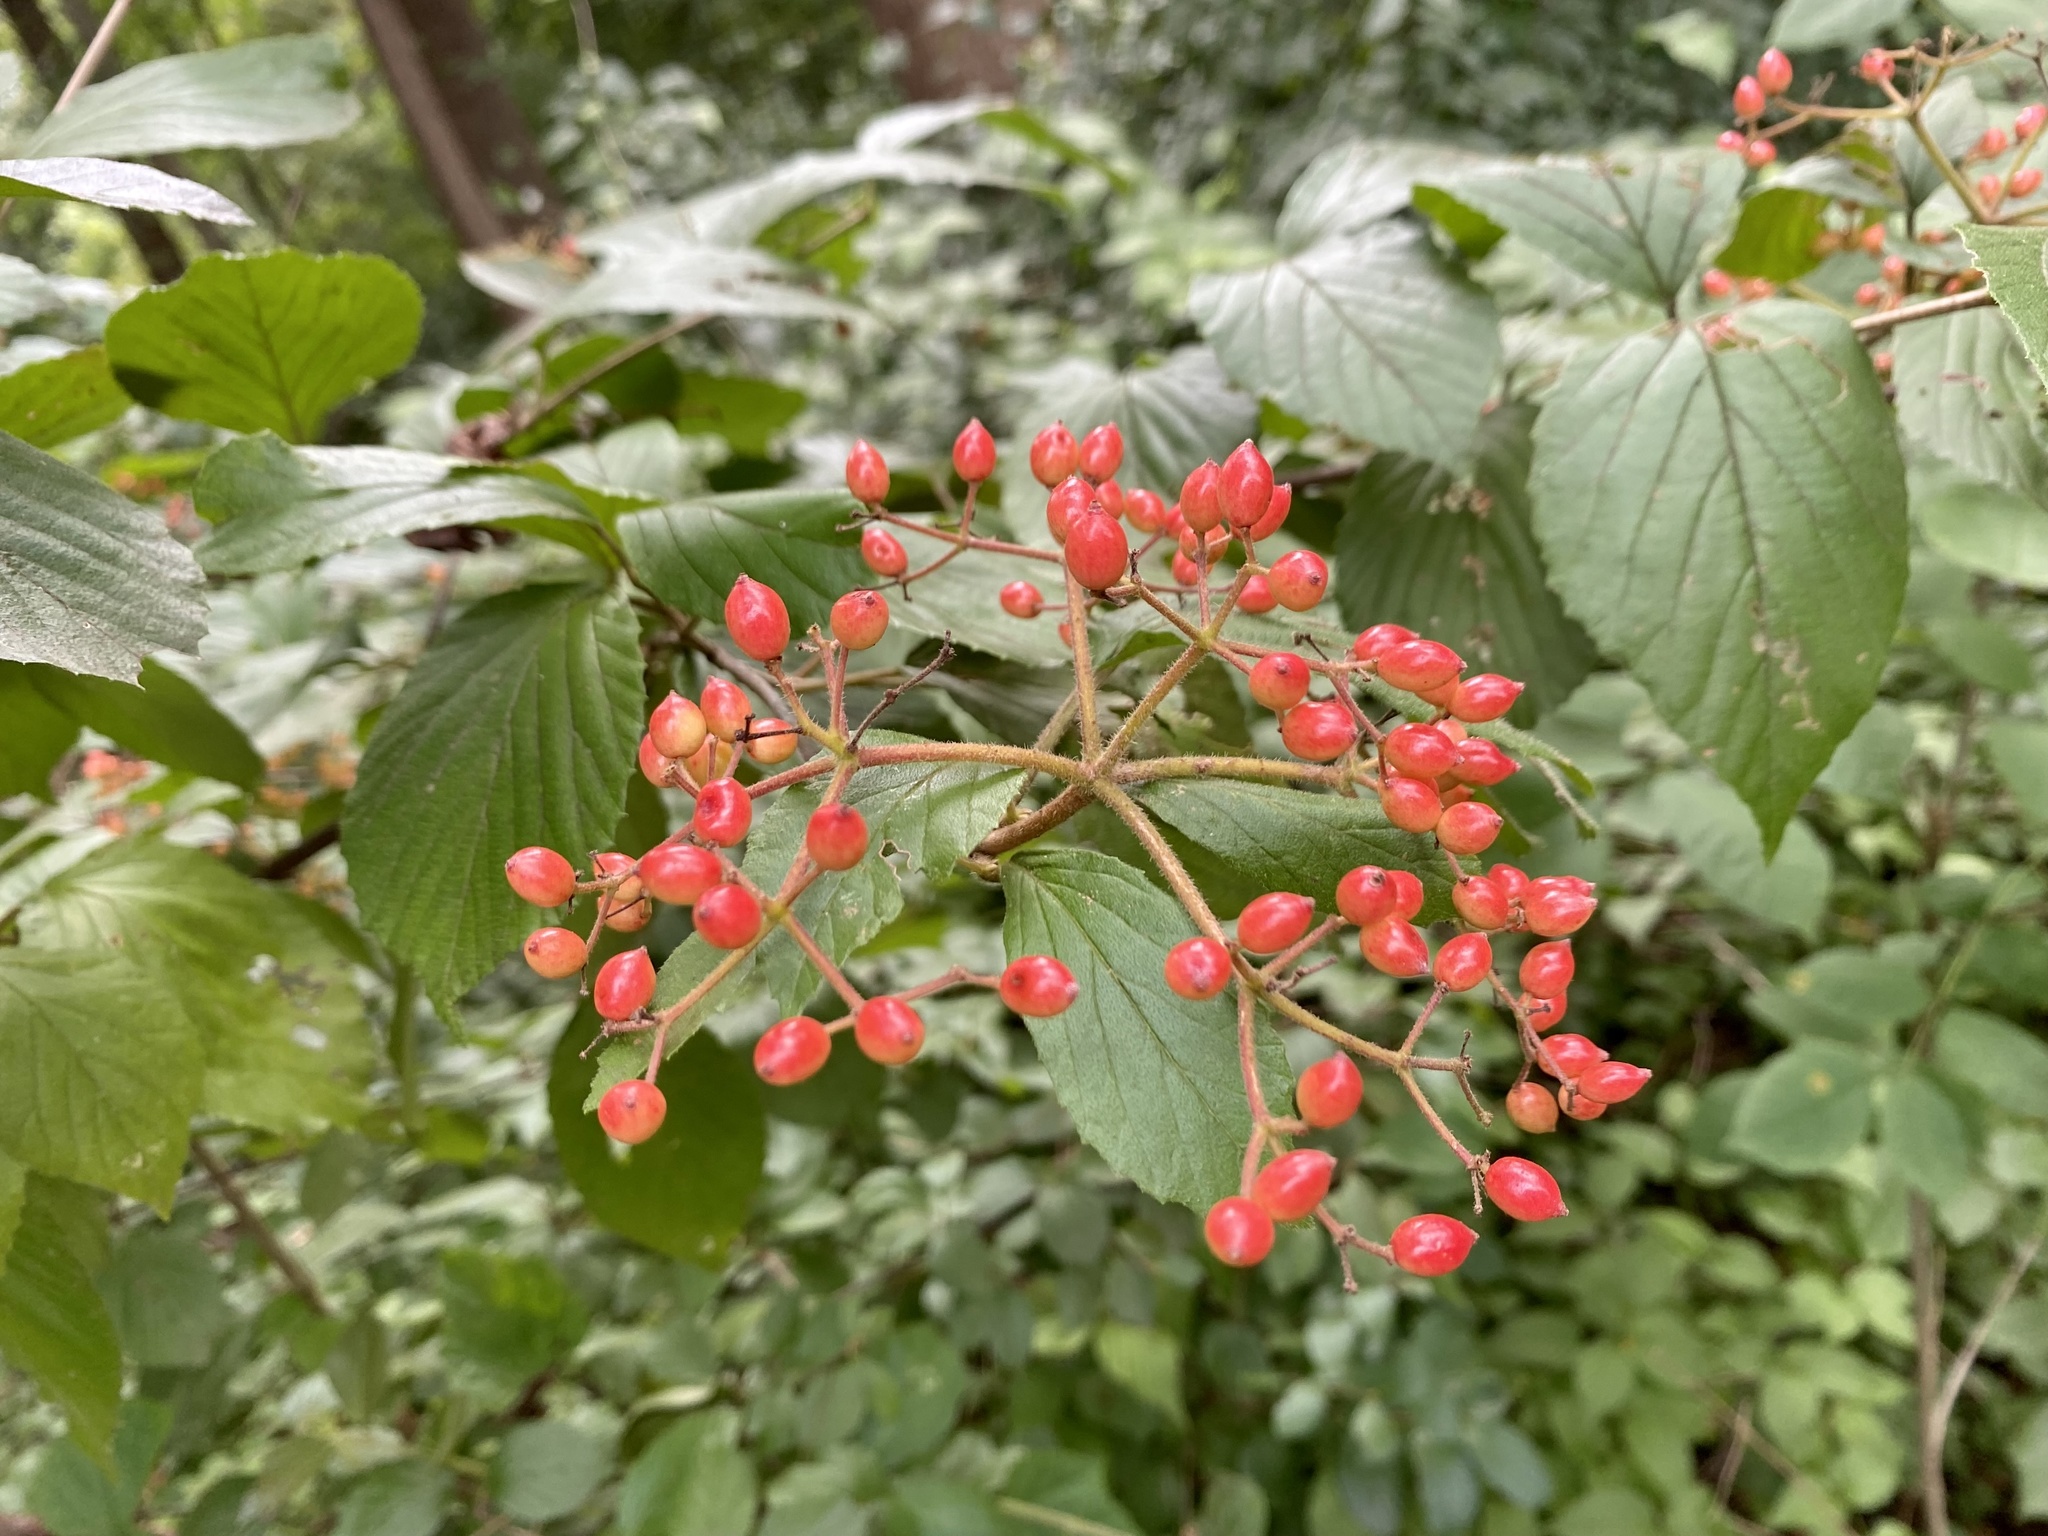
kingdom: Plantae
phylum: Tracheophyta
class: Magnoliopsida
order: Dipsacales
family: Viburnaceae
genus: Viburnum
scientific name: Viburnum dilatatum
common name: Linden arrowwood
